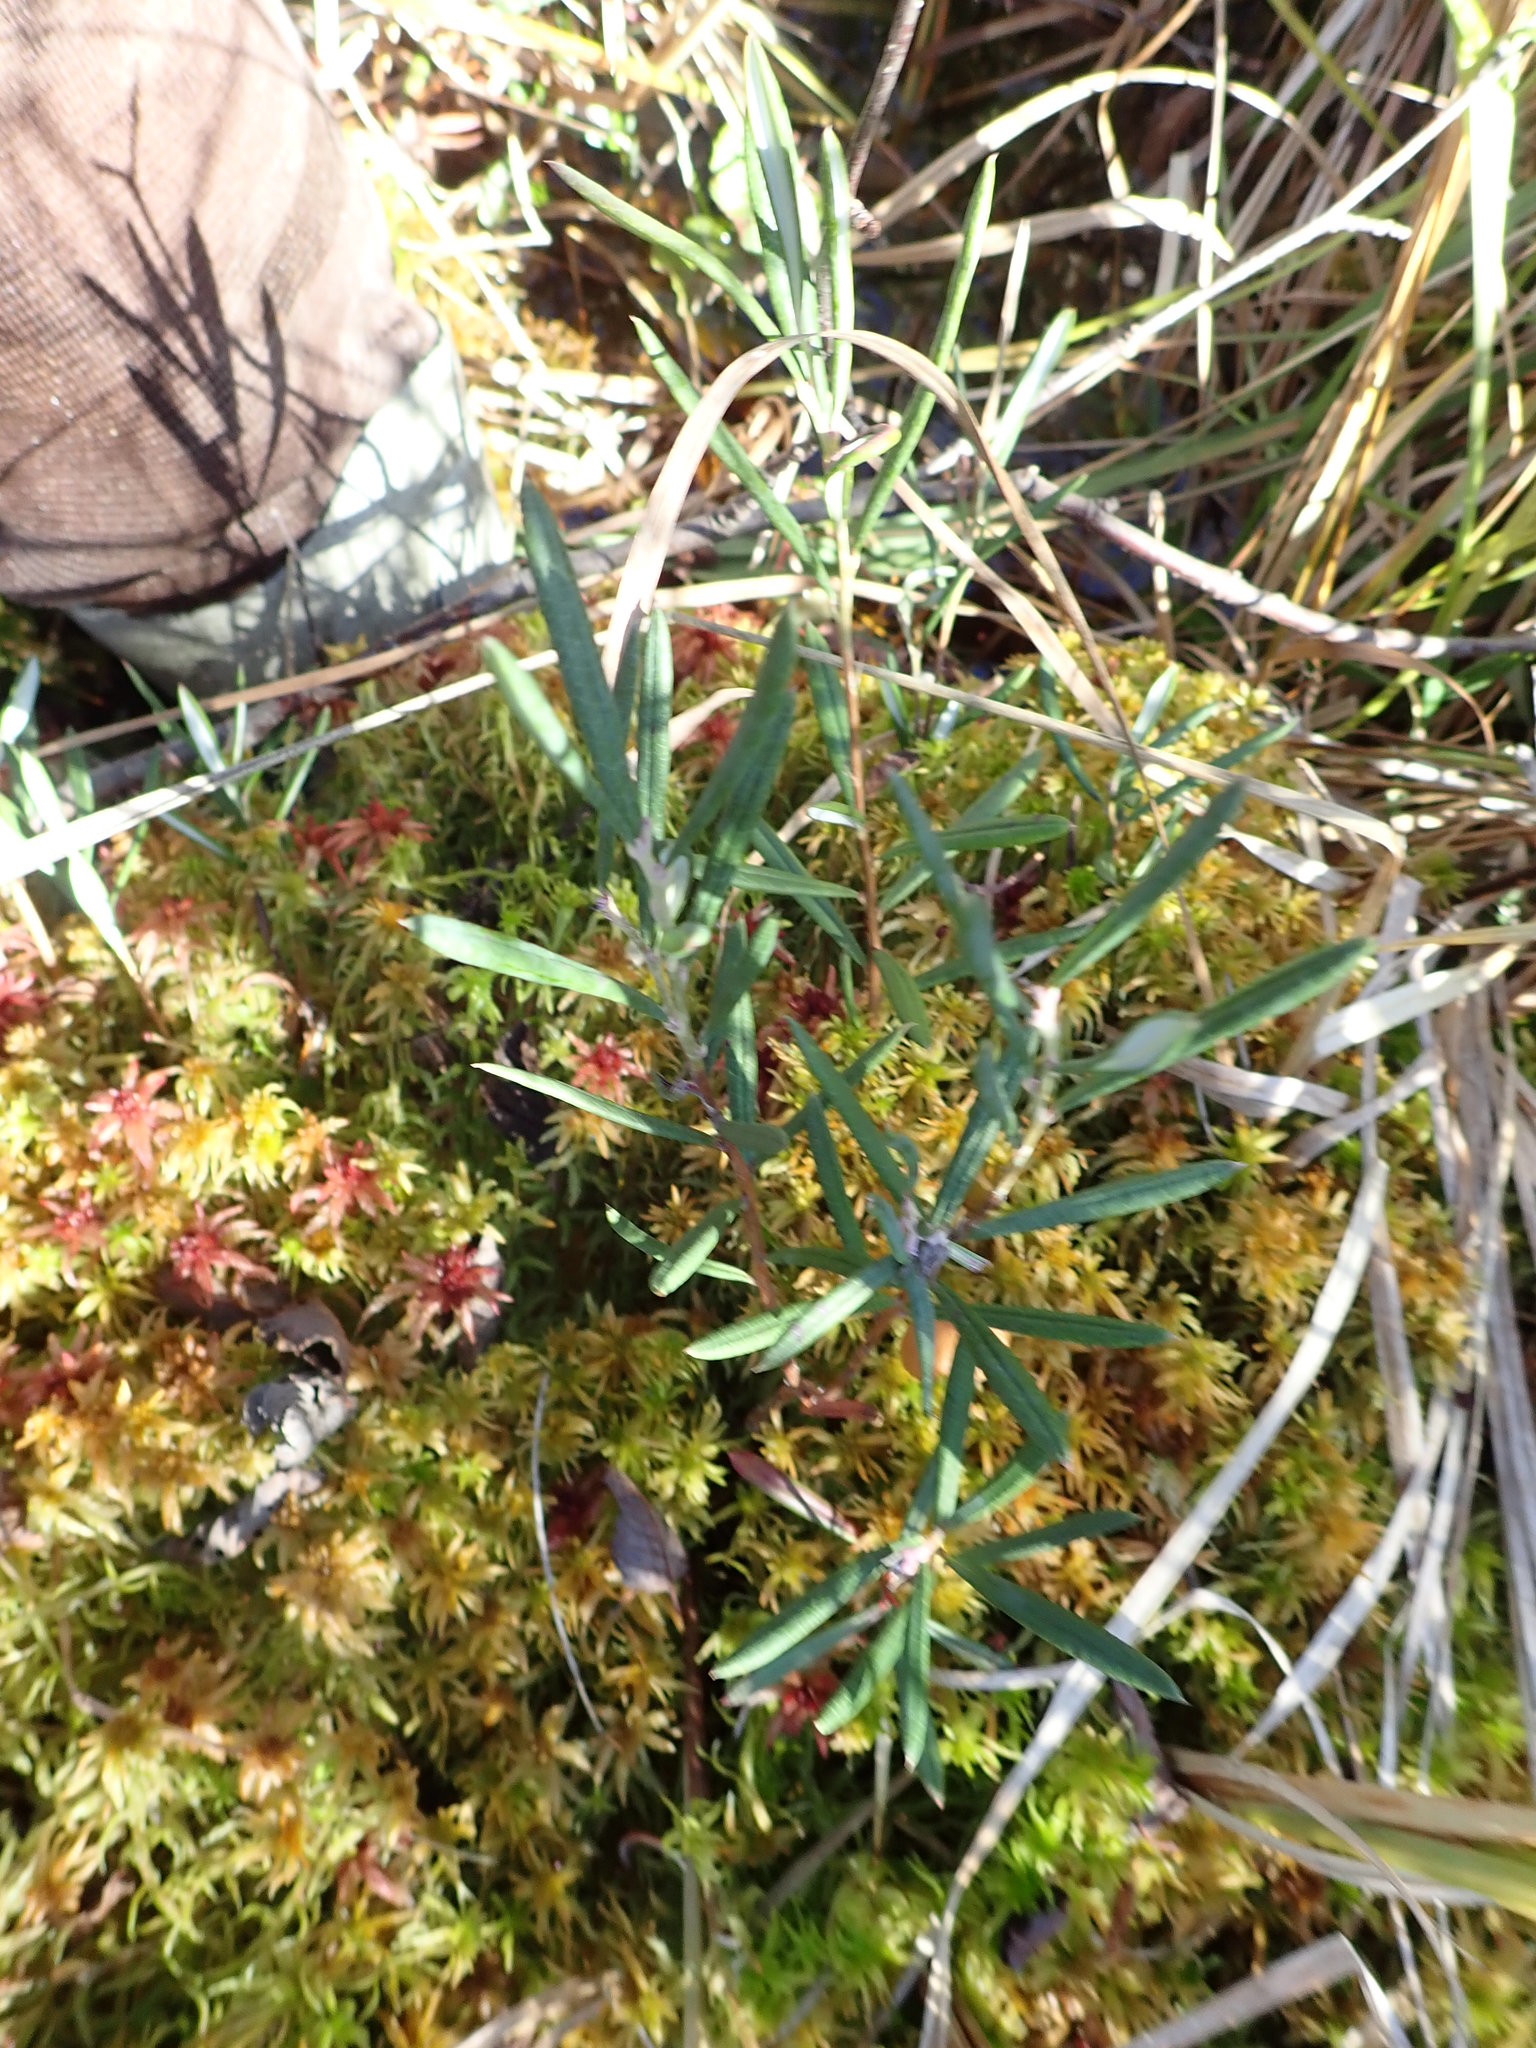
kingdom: Plantae
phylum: Tracheophyta
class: Magnoliopsida
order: Ericales
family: Ericaceae
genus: Andromeda
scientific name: Andromeda polifolia
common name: Bog-rosemary
